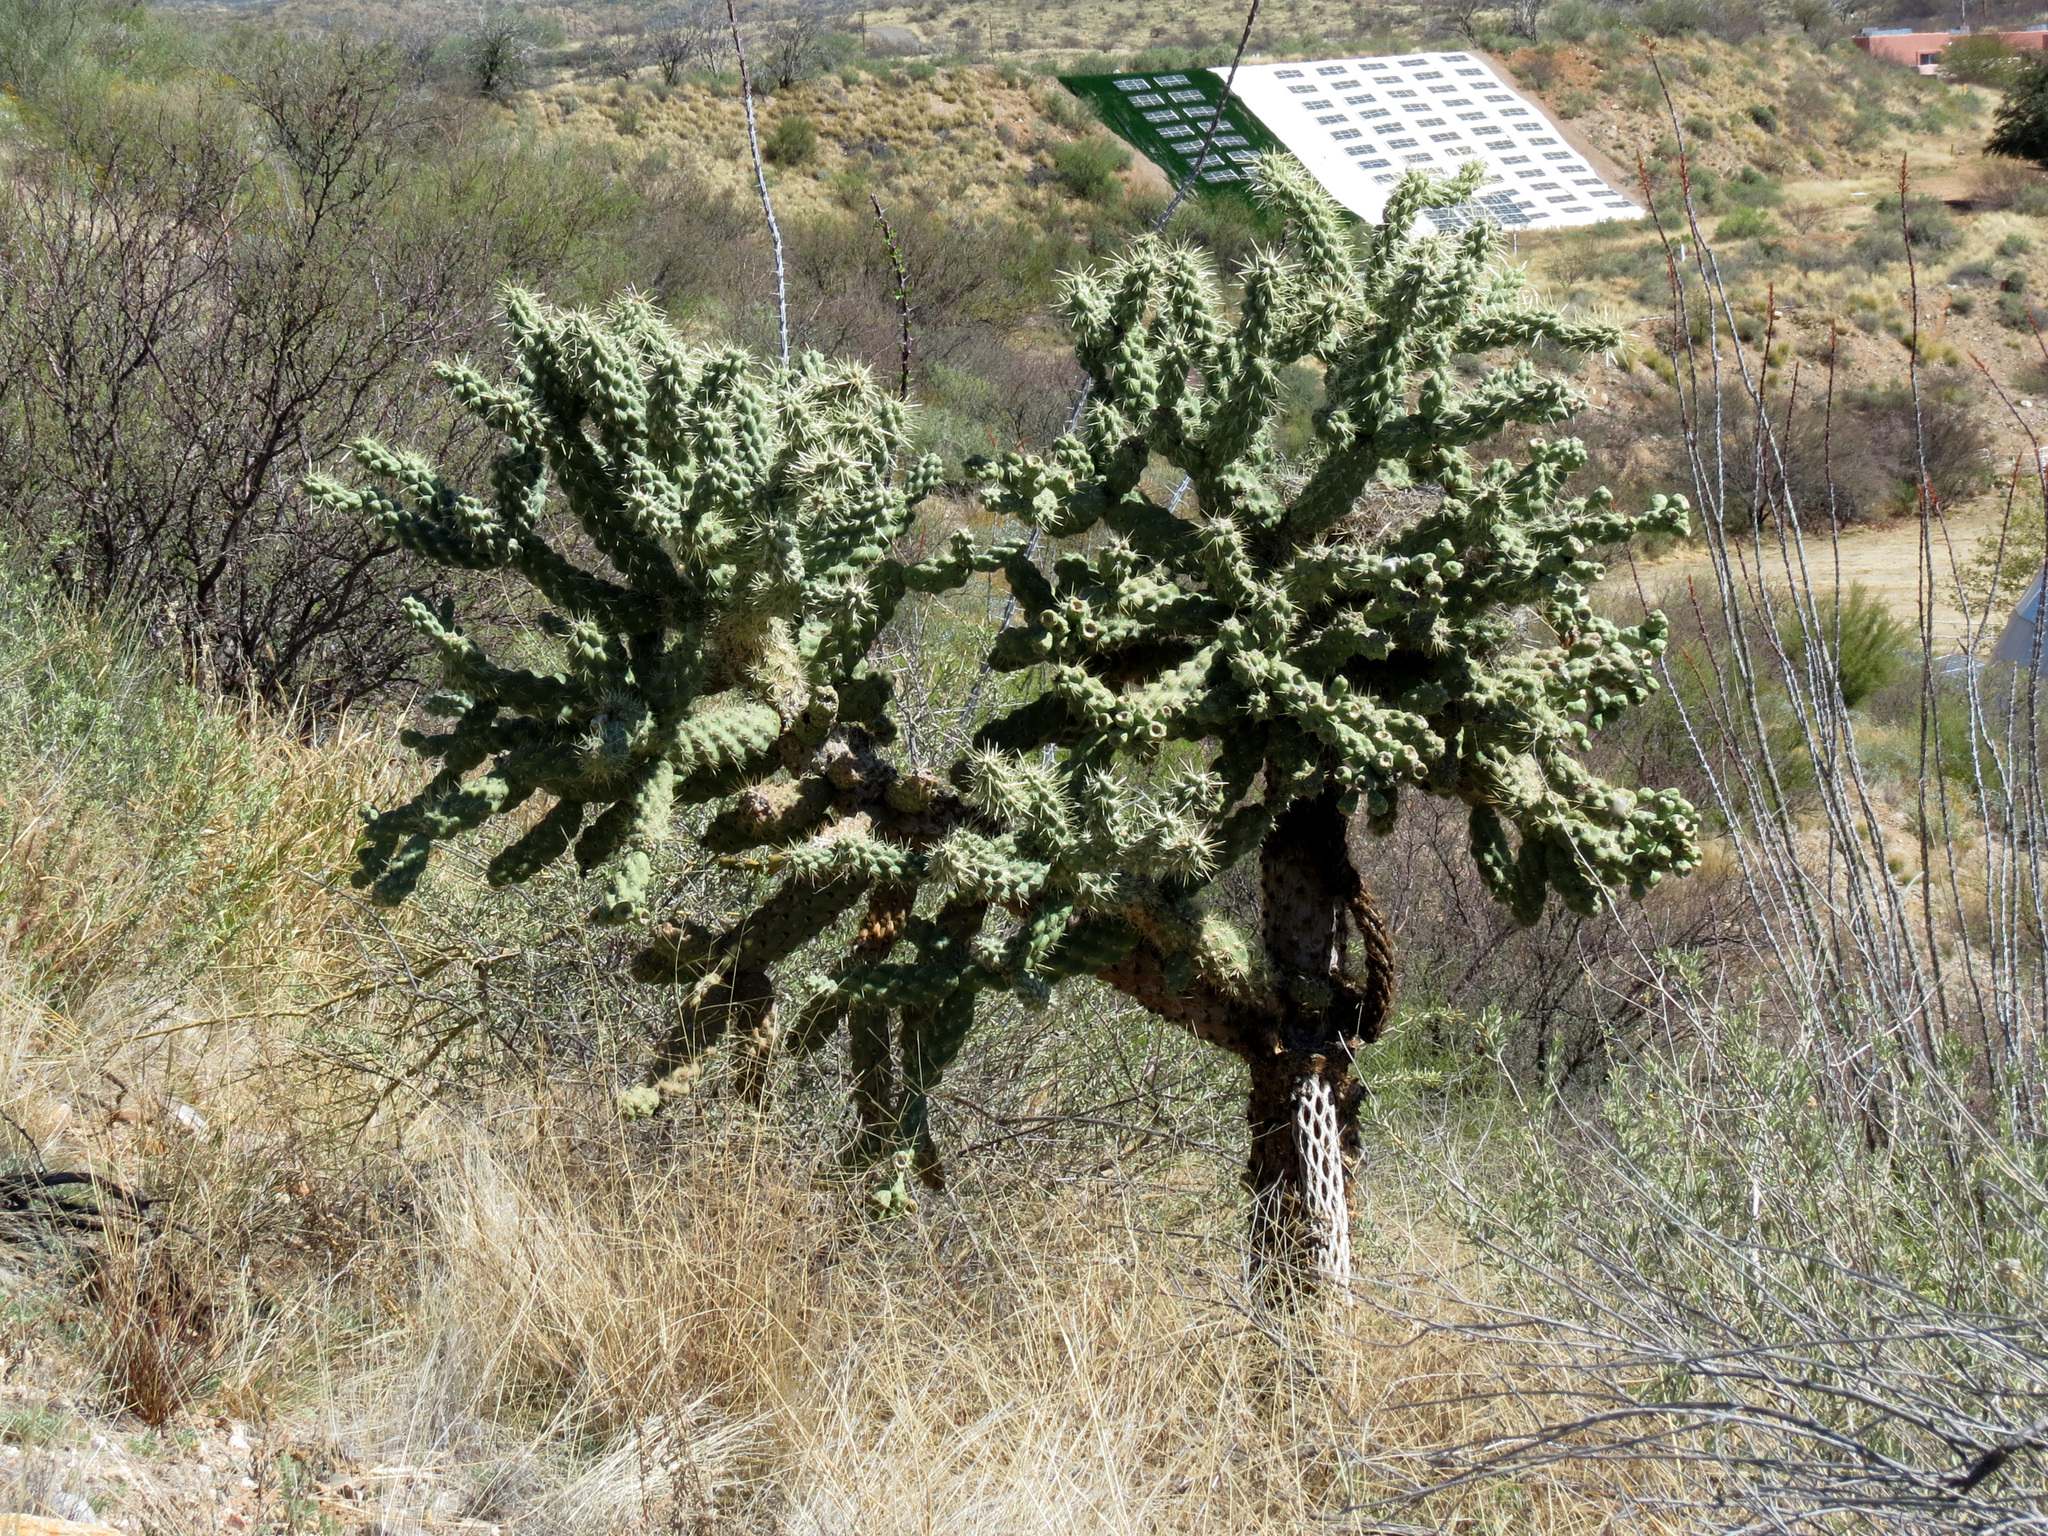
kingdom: Plantae
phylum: Tracheophyta
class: Magnoliopsida
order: Caryophyllales
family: Cactaceae
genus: Cylindropuntia
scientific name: Cylindropuntia fulgida
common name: Jumping cholla
